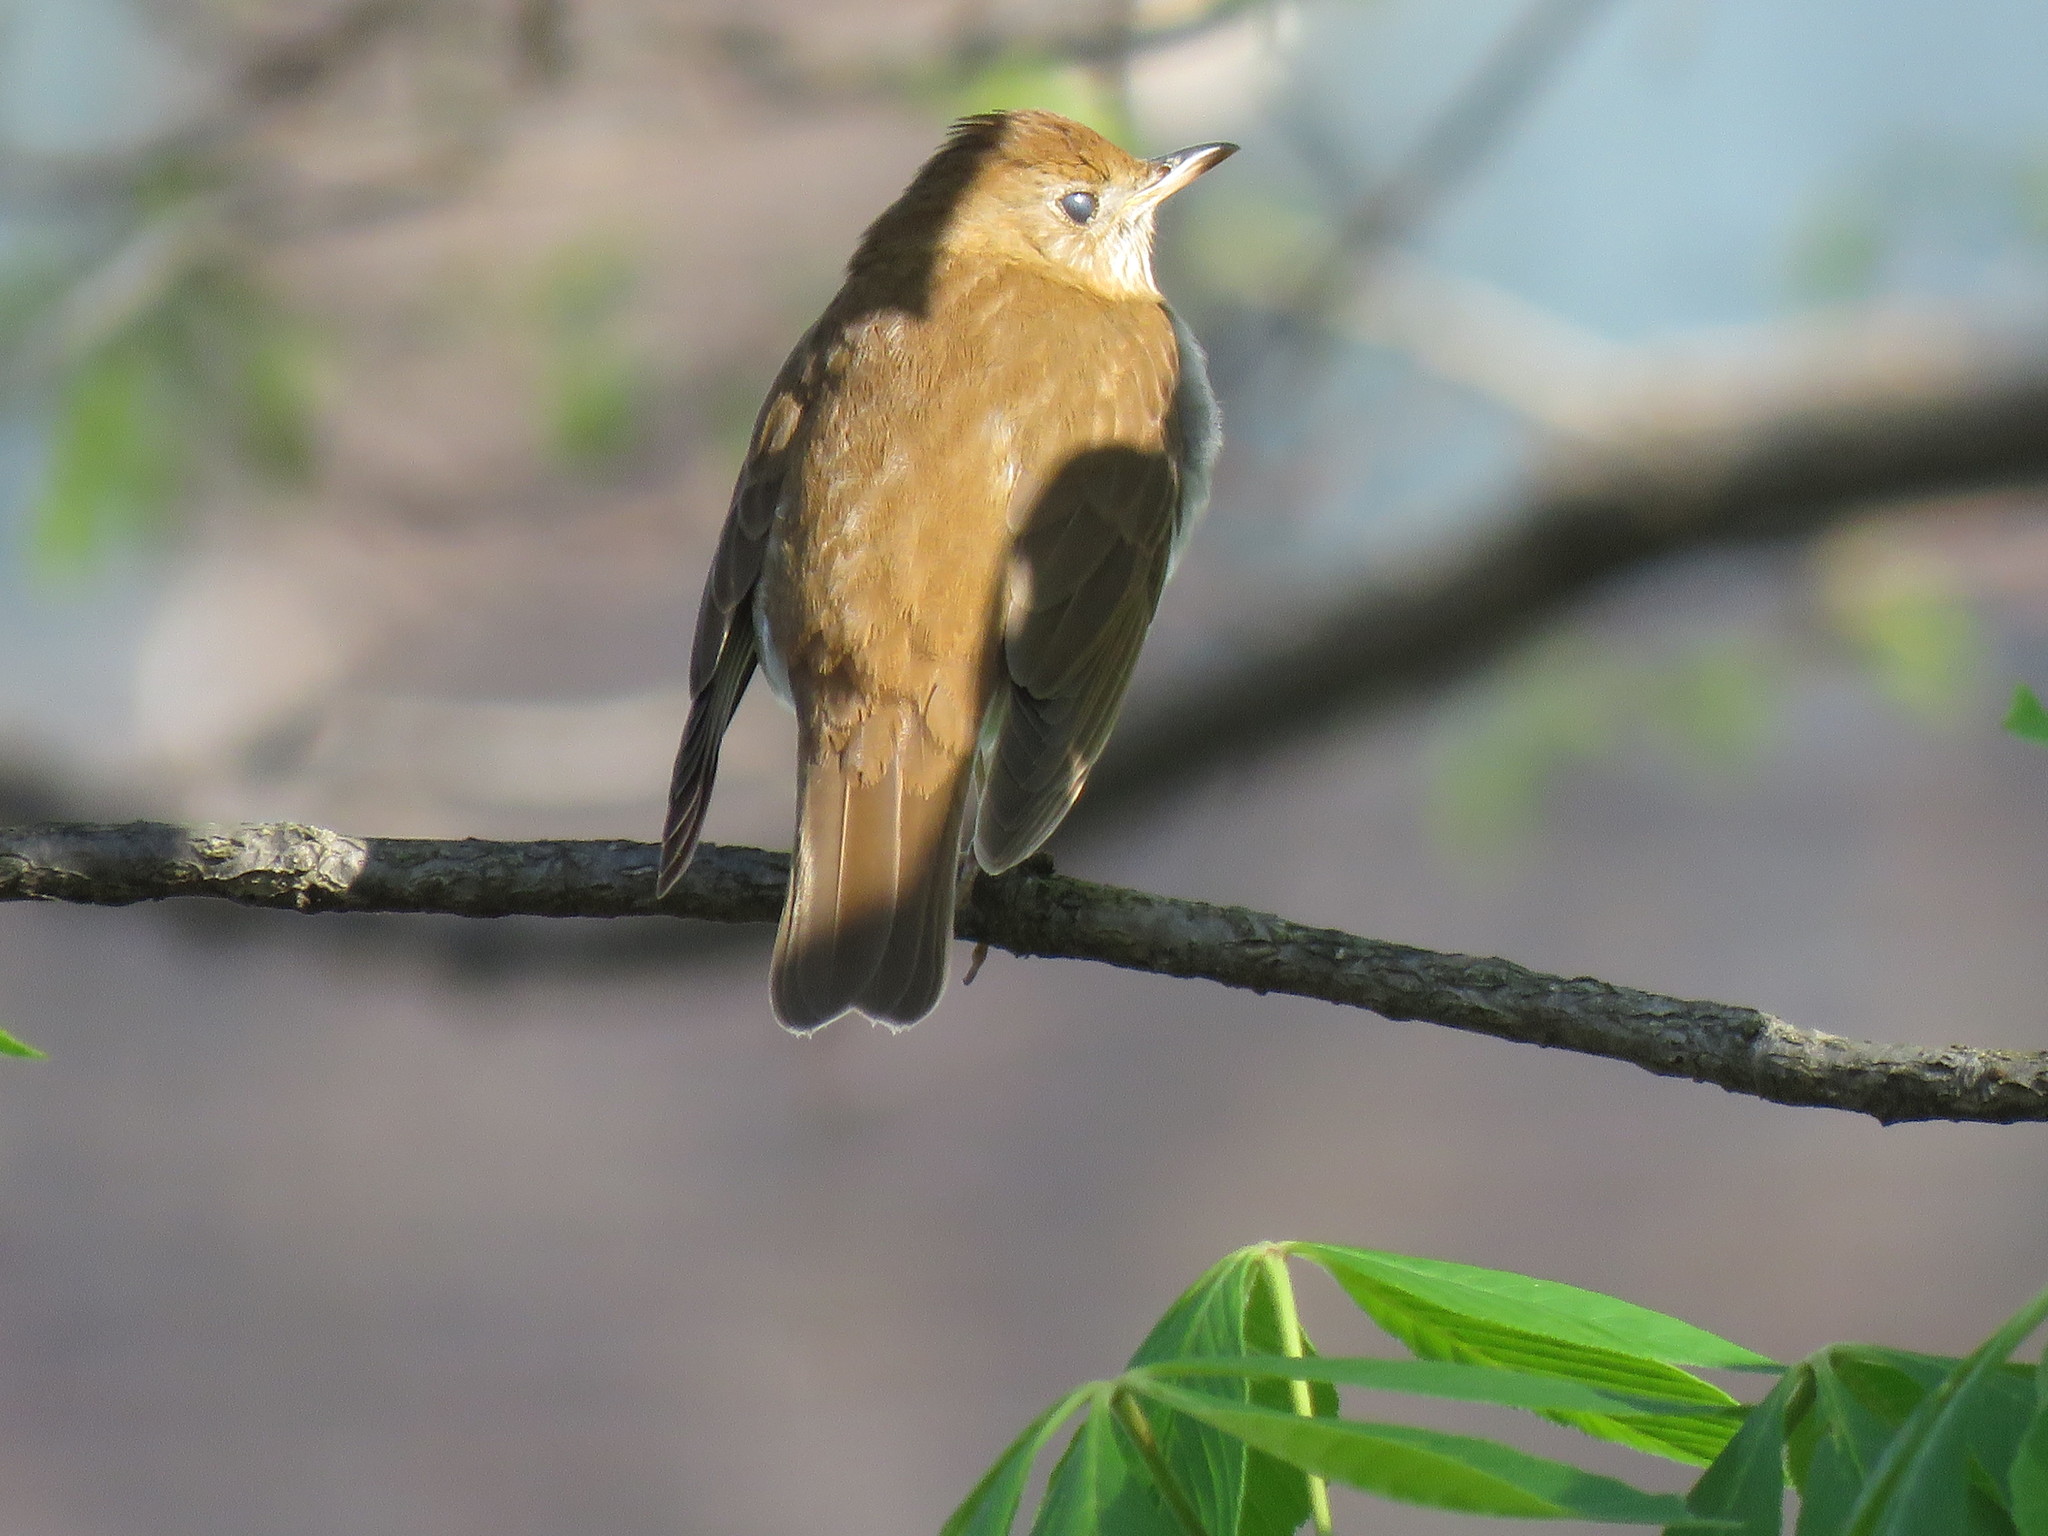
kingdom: Animalia
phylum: Chordata
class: Aves
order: Passeriformes
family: Turdidae
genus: Catharus
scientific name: Catharus fuscescens
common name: Veery
